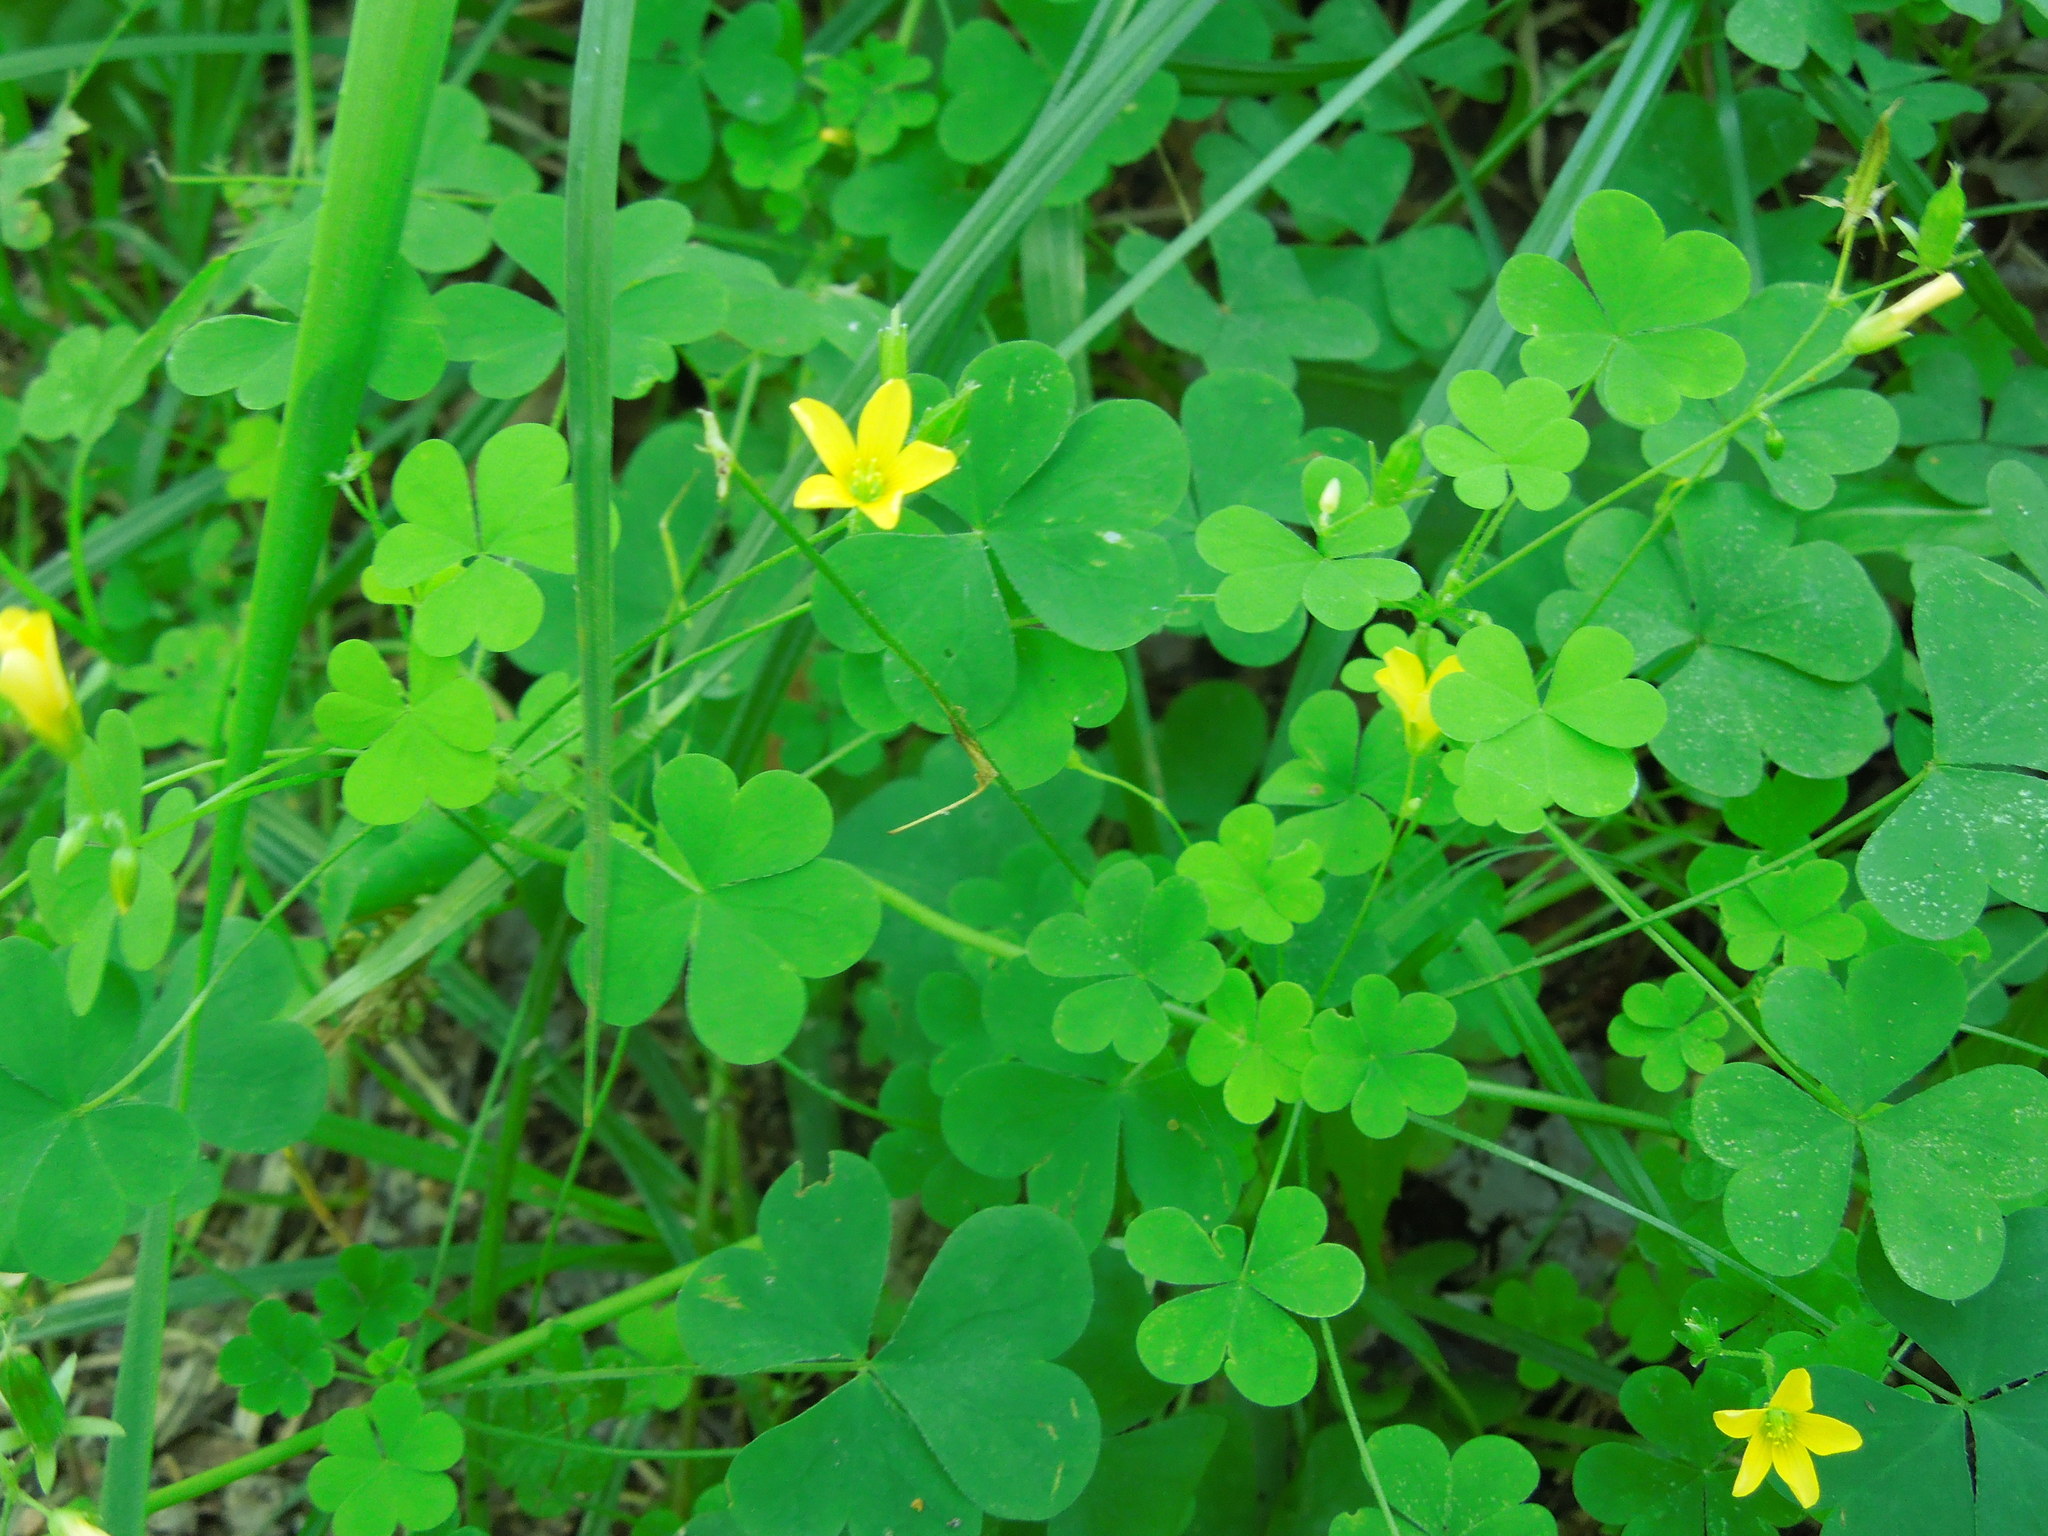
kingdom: Plantae
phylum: Tracheophyta
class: Magnoliopsida
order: Oxalidales
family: Oxalidaceae
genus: Oxalis
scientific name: Oxalis stricta
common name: Upright yellow-sorrel
